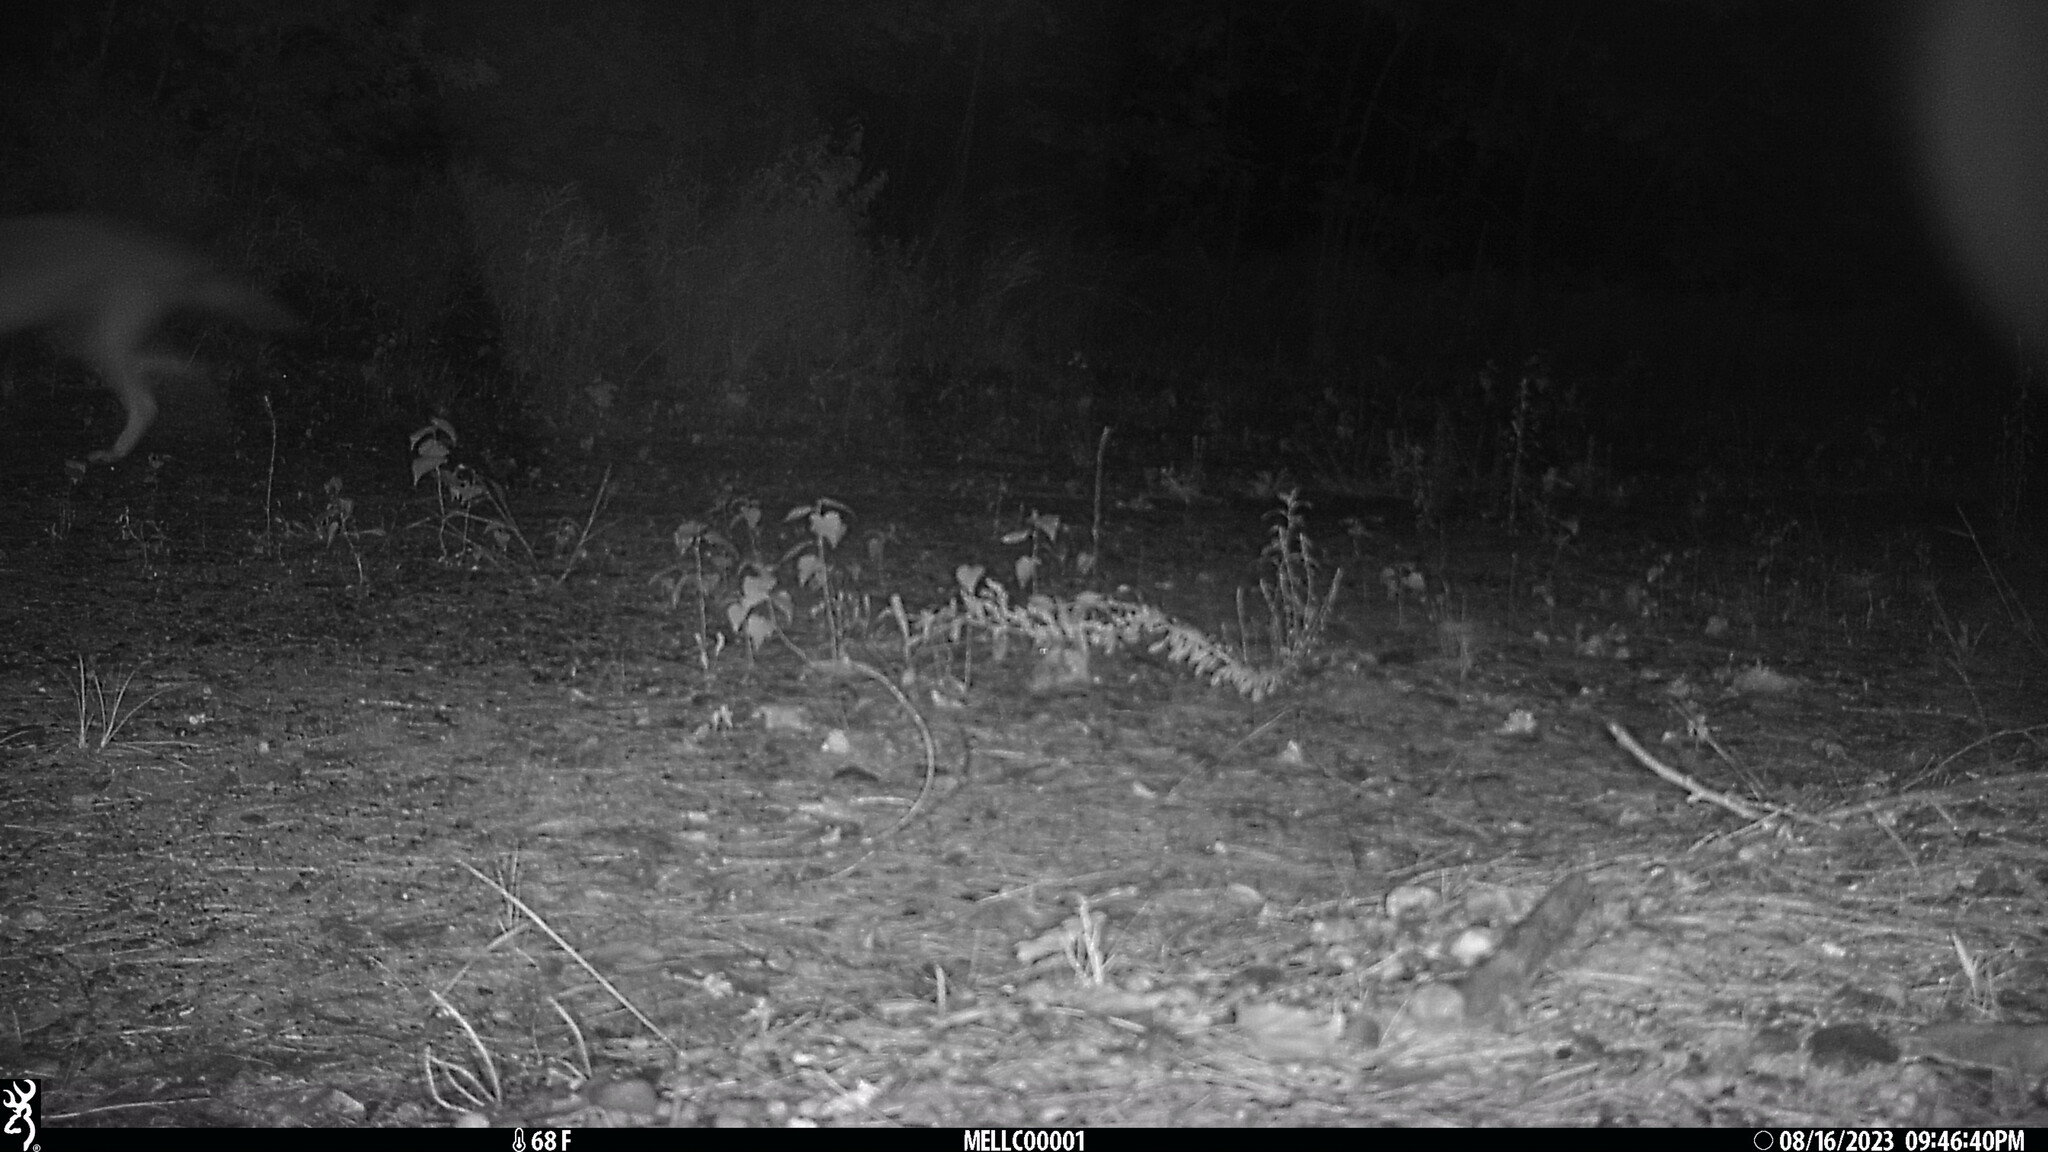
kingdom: Animalia
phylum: Chordata
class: Mammalia
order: Carnivora
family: Canidae
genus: Canis
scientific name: Canis latrans
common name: Coyote
